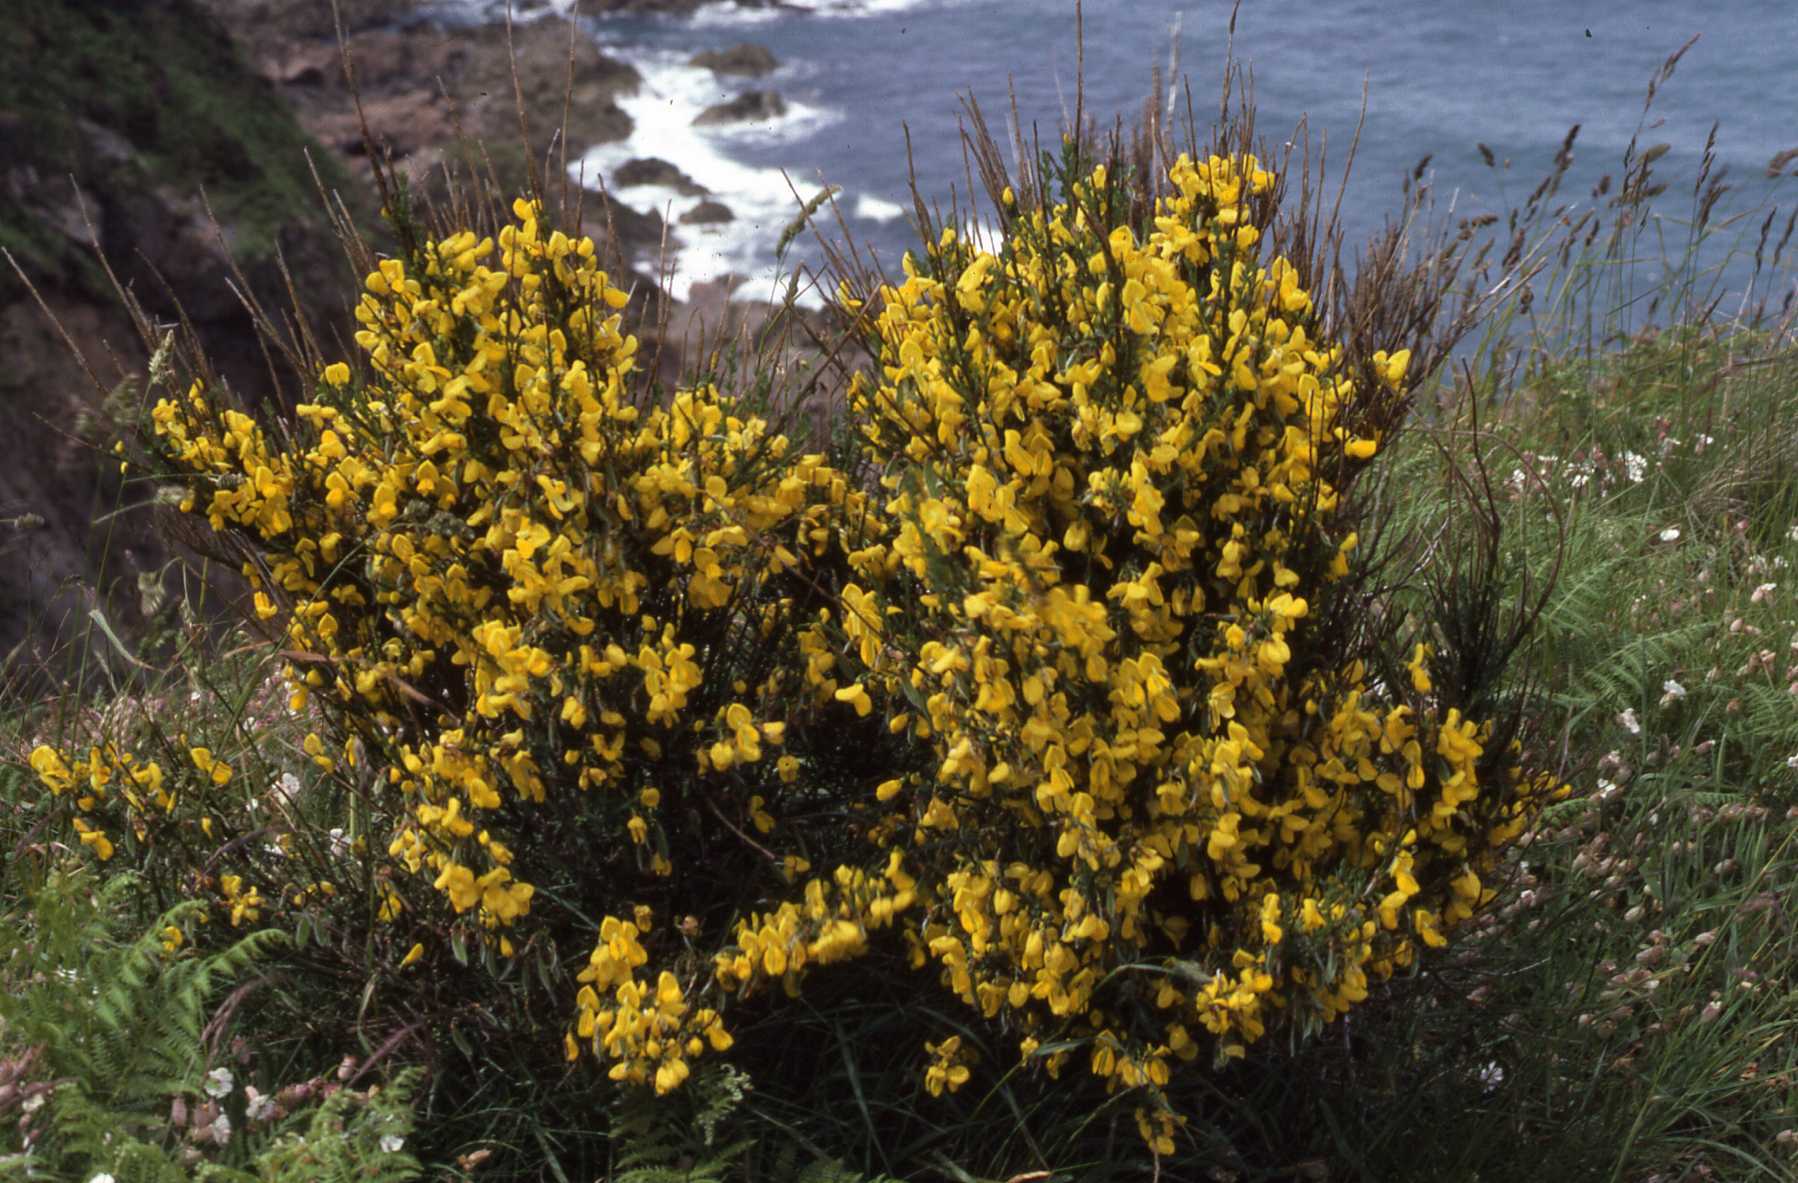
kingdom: Plantae
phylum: Tracheophyta
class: Magnoliopsida
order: Fabales
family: Fabaceae
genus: Cytisus
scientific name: Cytisus scoparius
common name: Scotch broom
